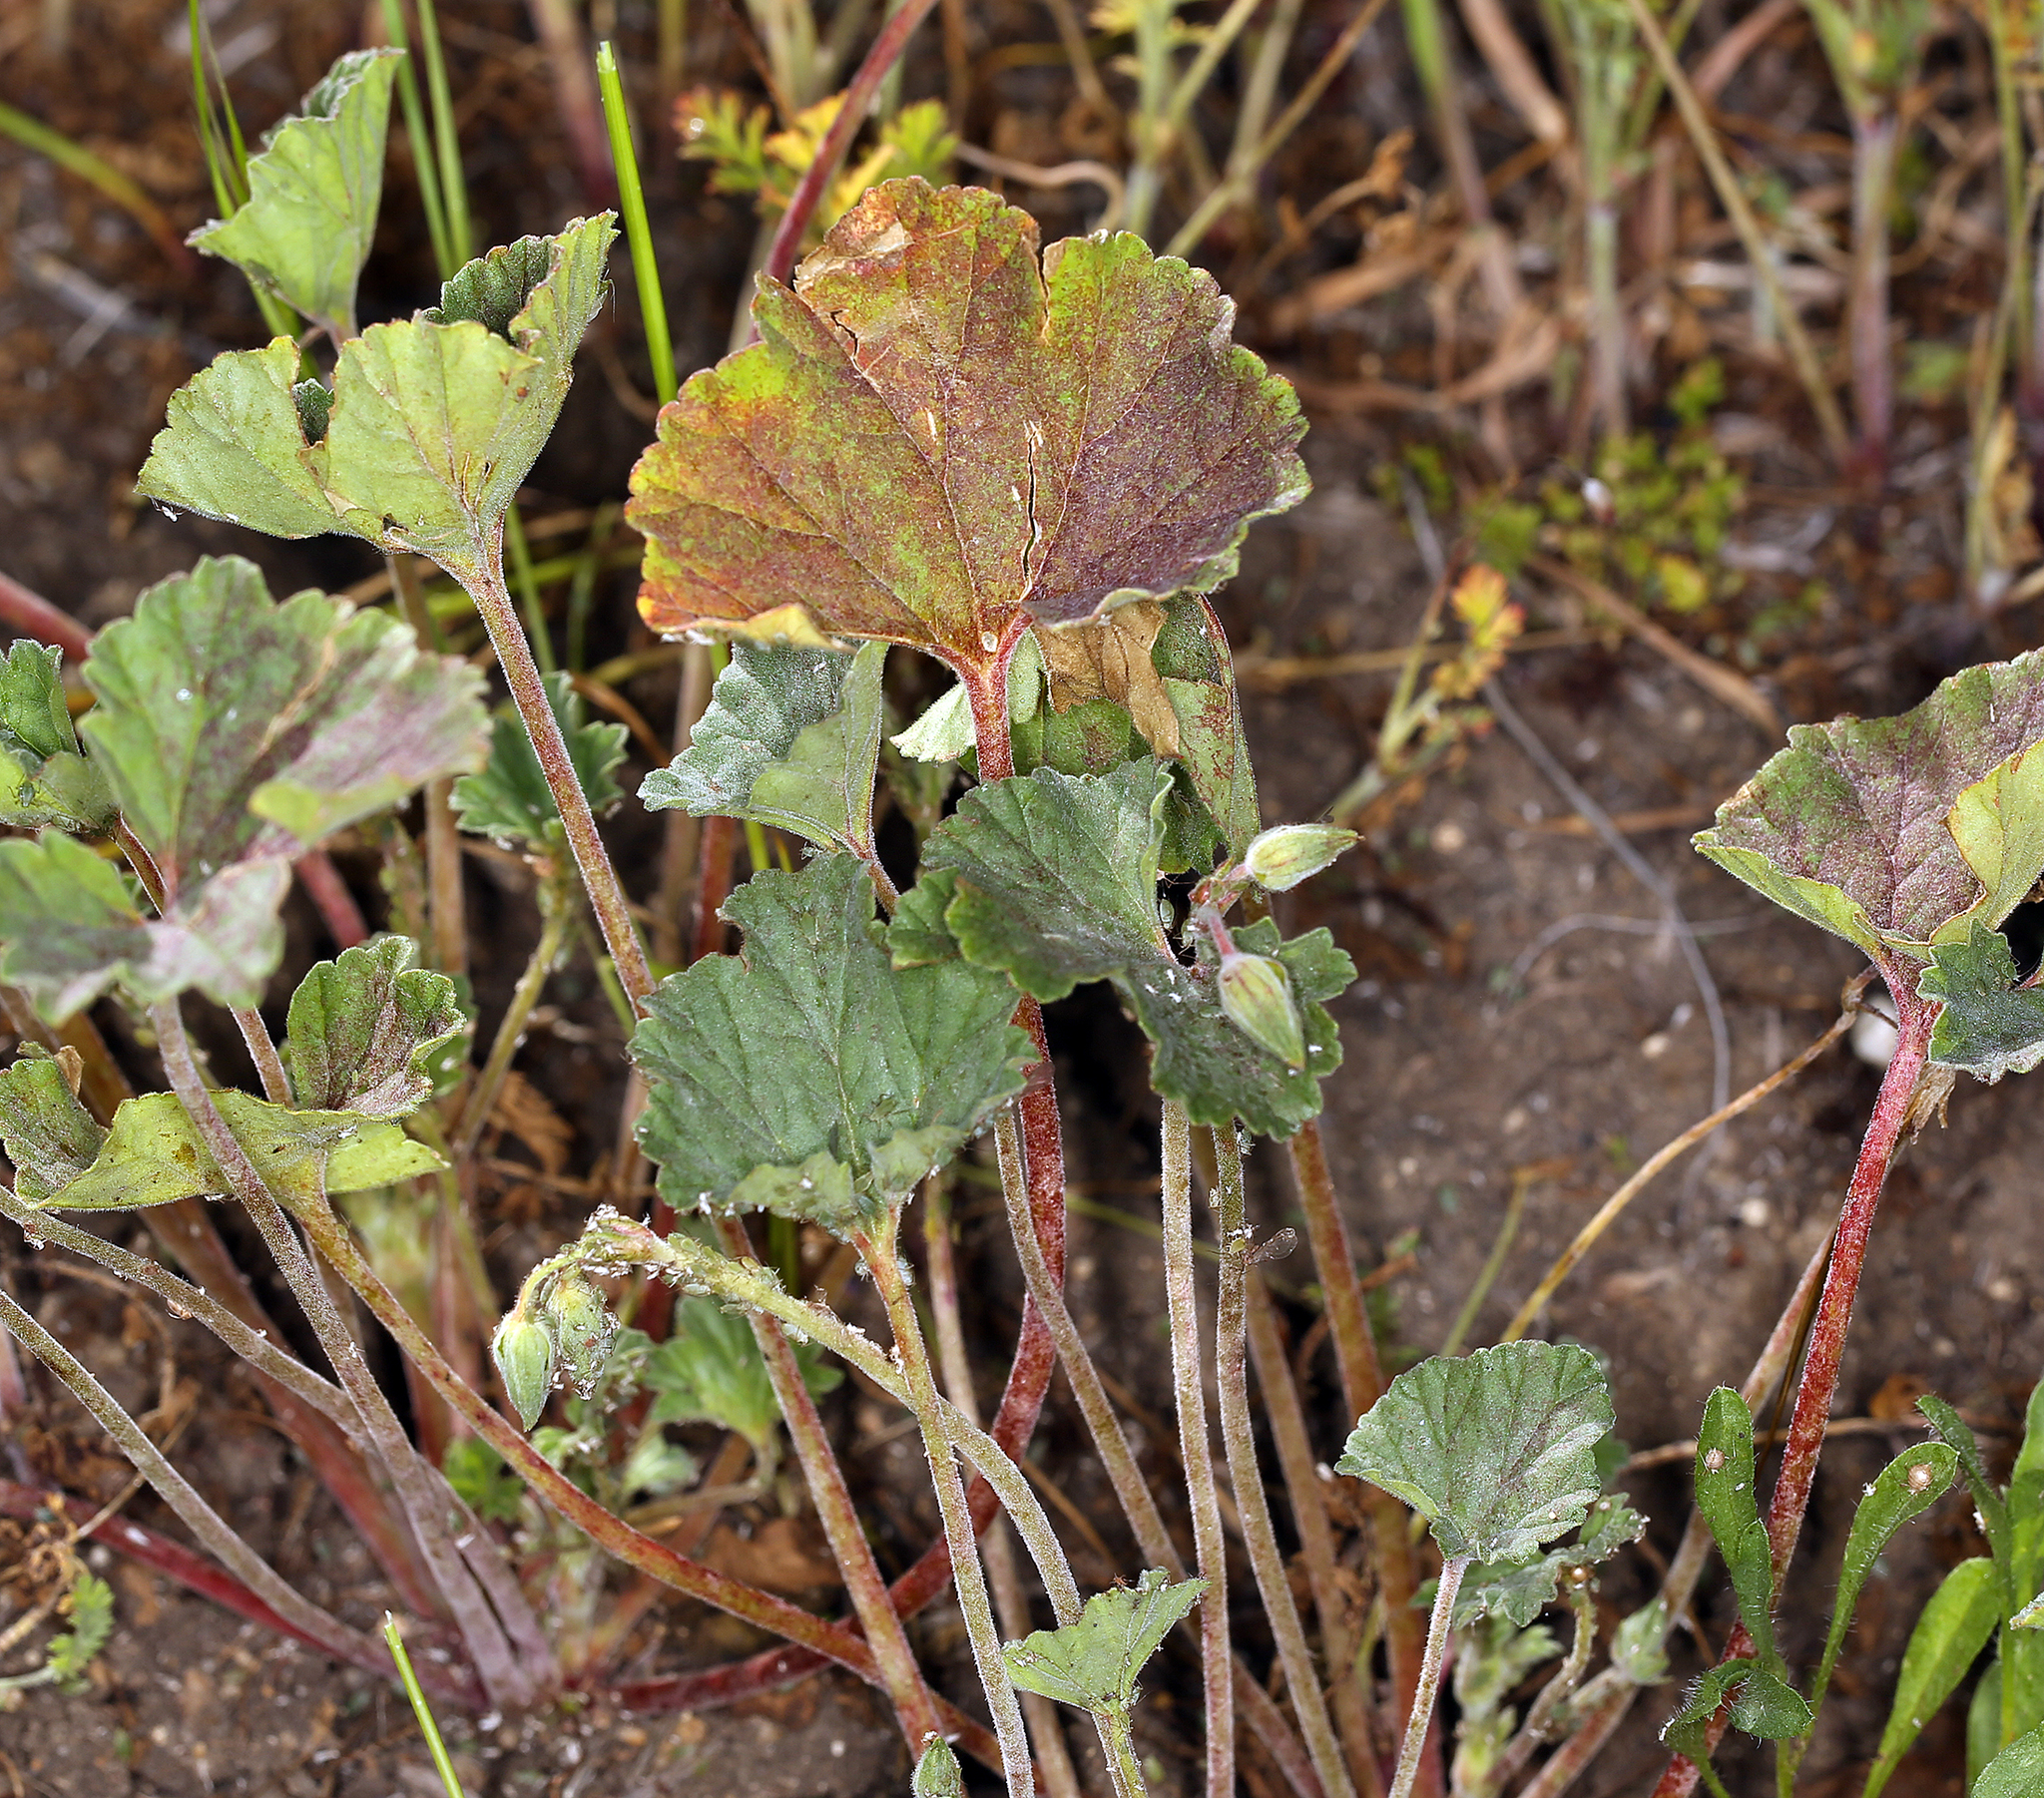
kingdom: Plantae
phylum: Tracheophyta
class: Magnoliopsida
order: Geraniales
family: Geraniaceae
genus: California
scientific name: California macrophylla
